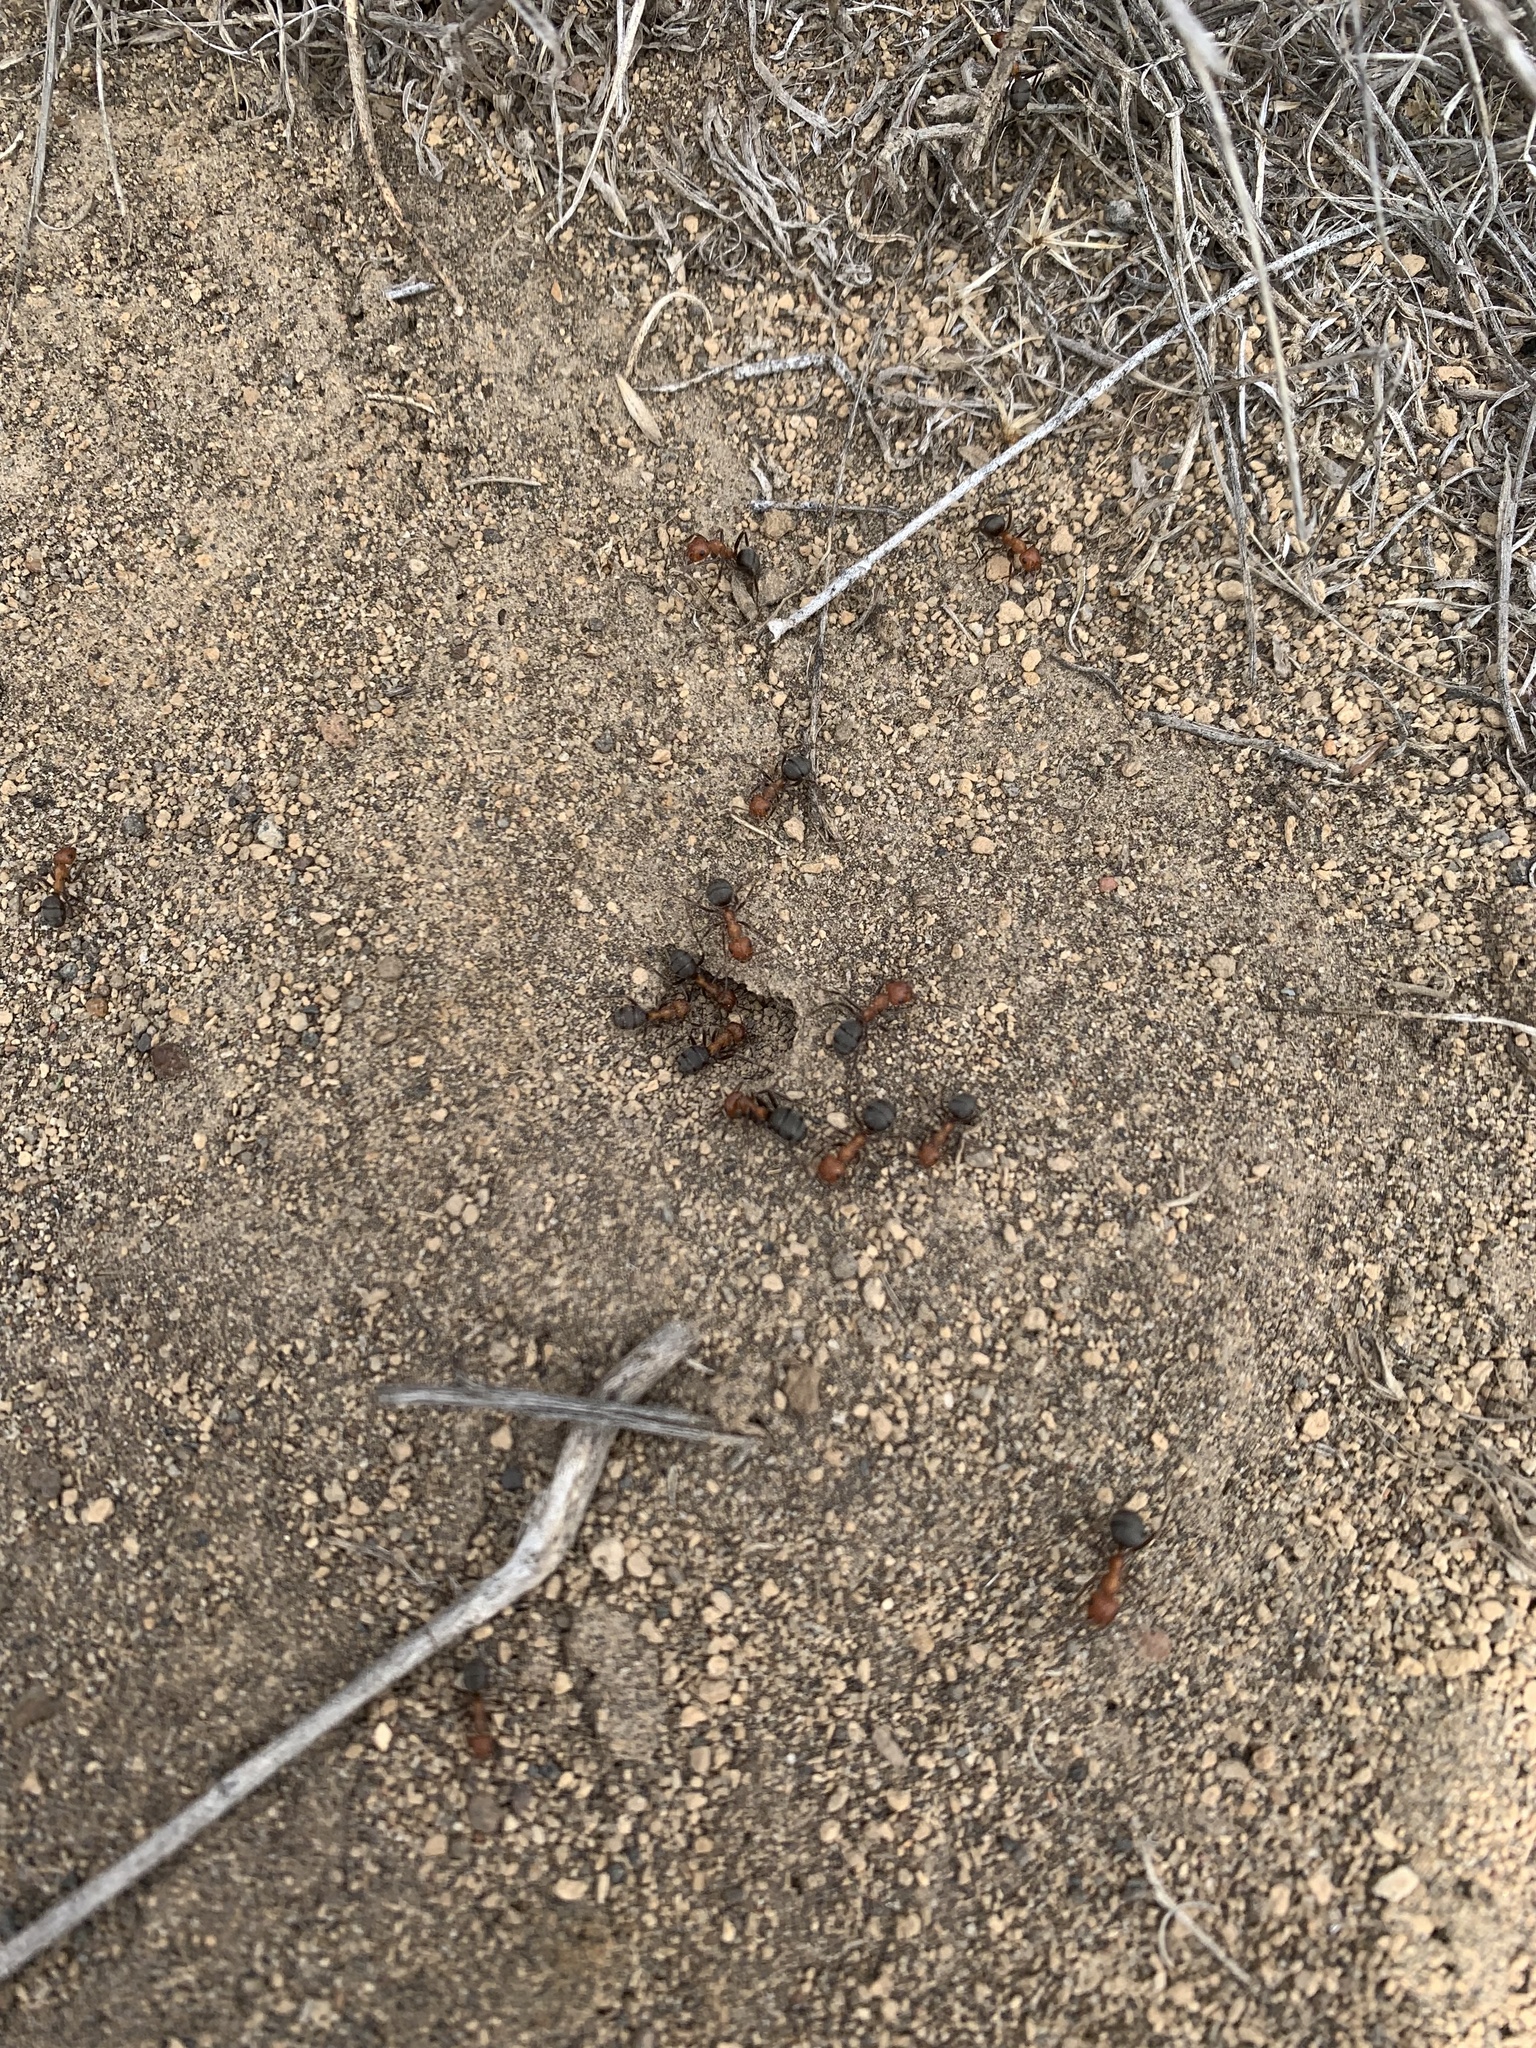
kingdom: Animalia
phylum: Arthropoda
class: Insecta
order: Hymenoptera
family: Formicidae
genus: Formica
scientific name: Formica obscuripes
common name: Western thatching ant
